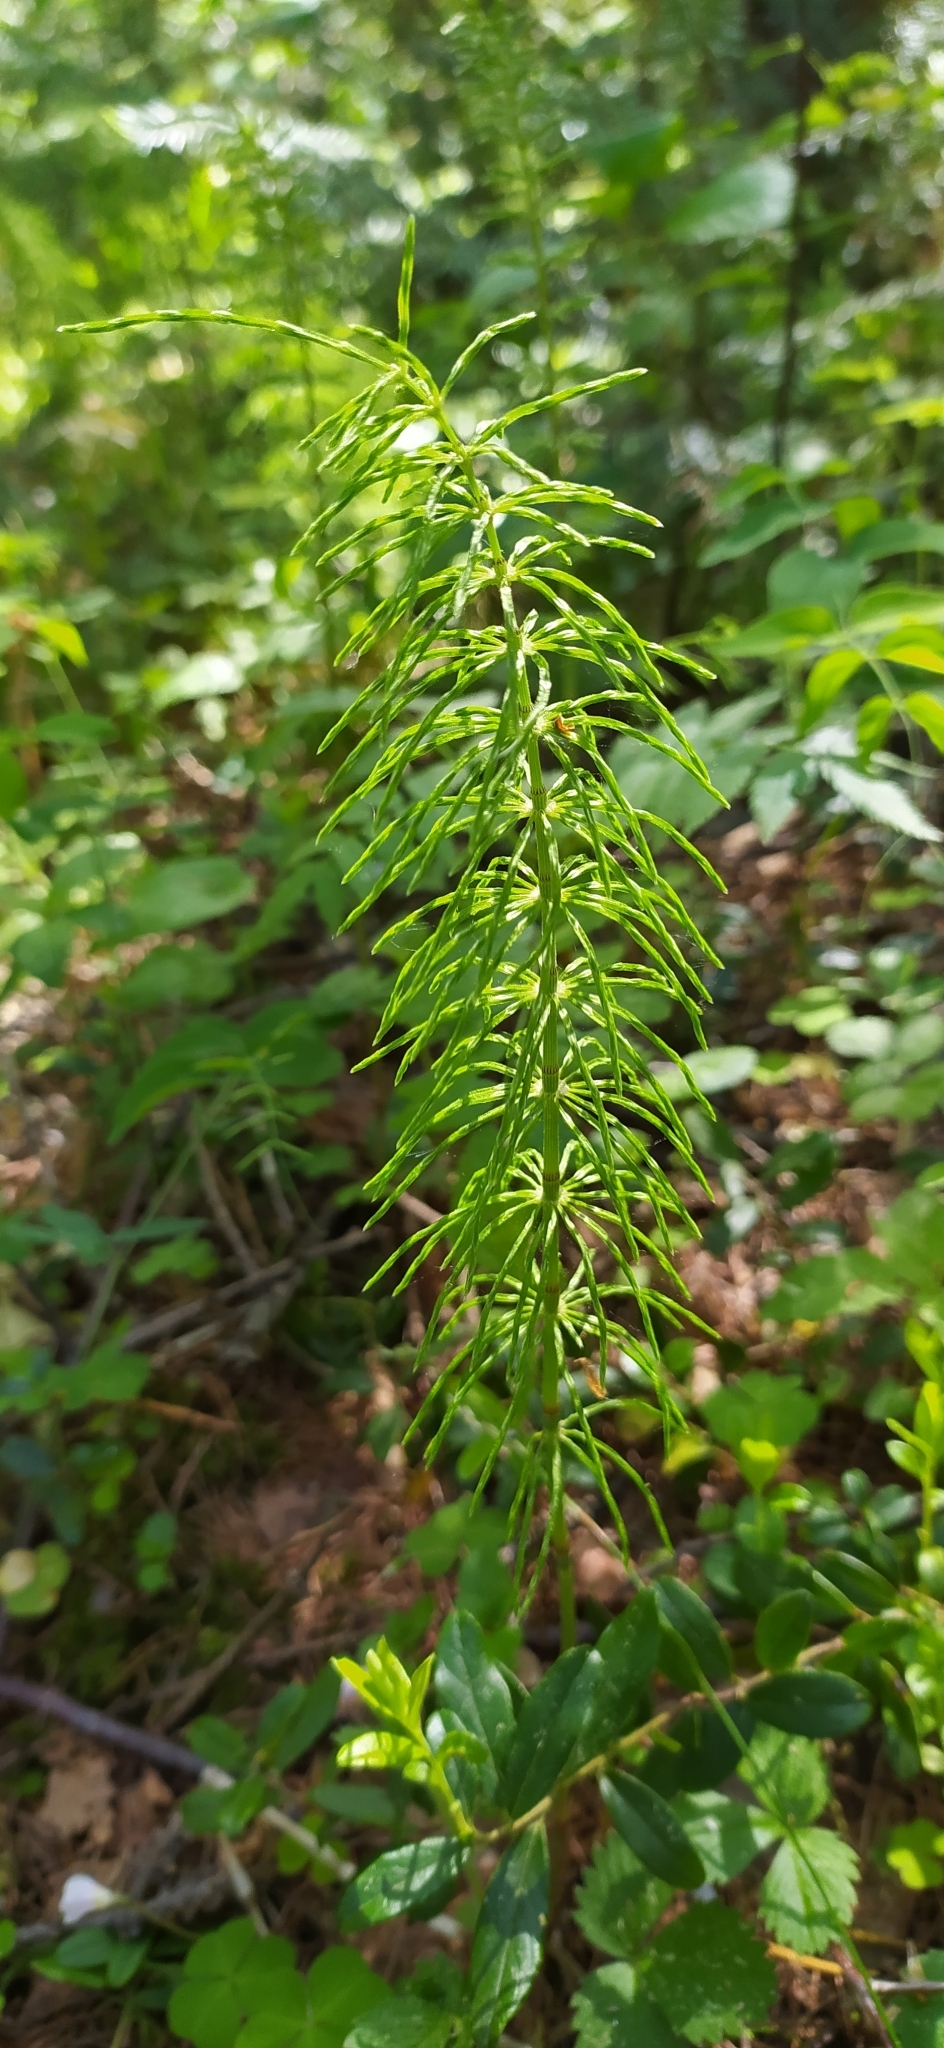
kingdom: Plantae
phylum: Tracheophyta
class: Polypodiopsida
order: Equisetales
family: Equisetaceae
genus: Equisetum
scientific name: Equisetum pratense
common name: Meadow horsetail
